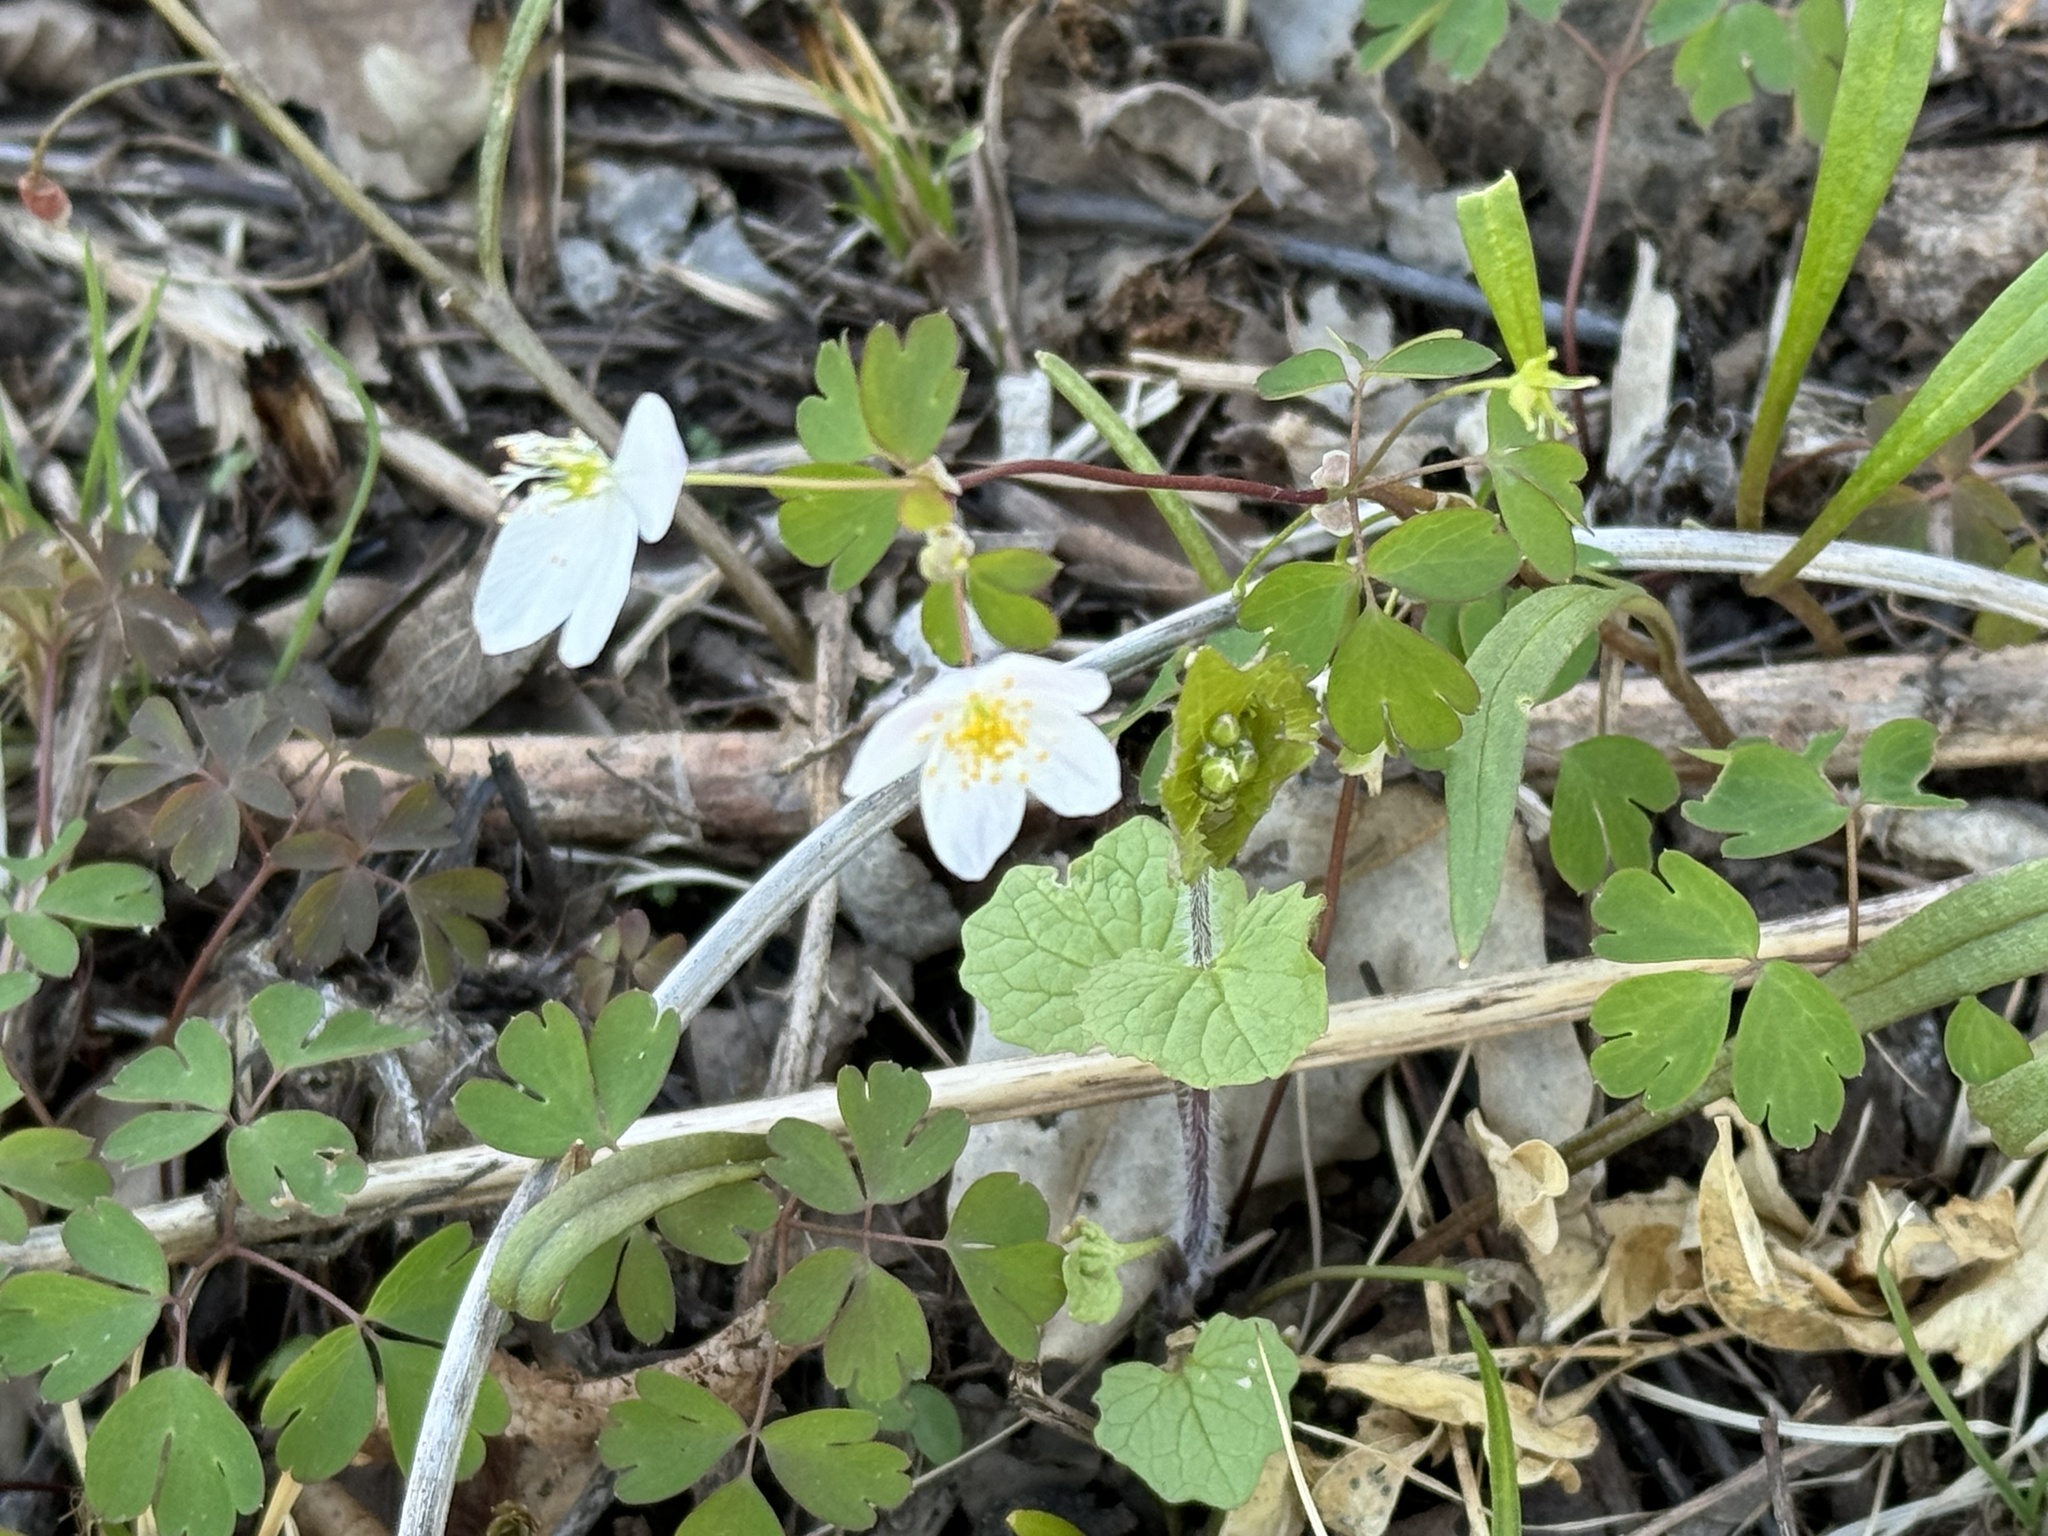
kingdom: Plantae
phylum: Tracheophyta
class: Magnoliopsida
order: Ranunculales
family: Ranunculaceae
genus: Enemion
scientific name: Enemion biternatum
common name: Eastern false rue-anemone
